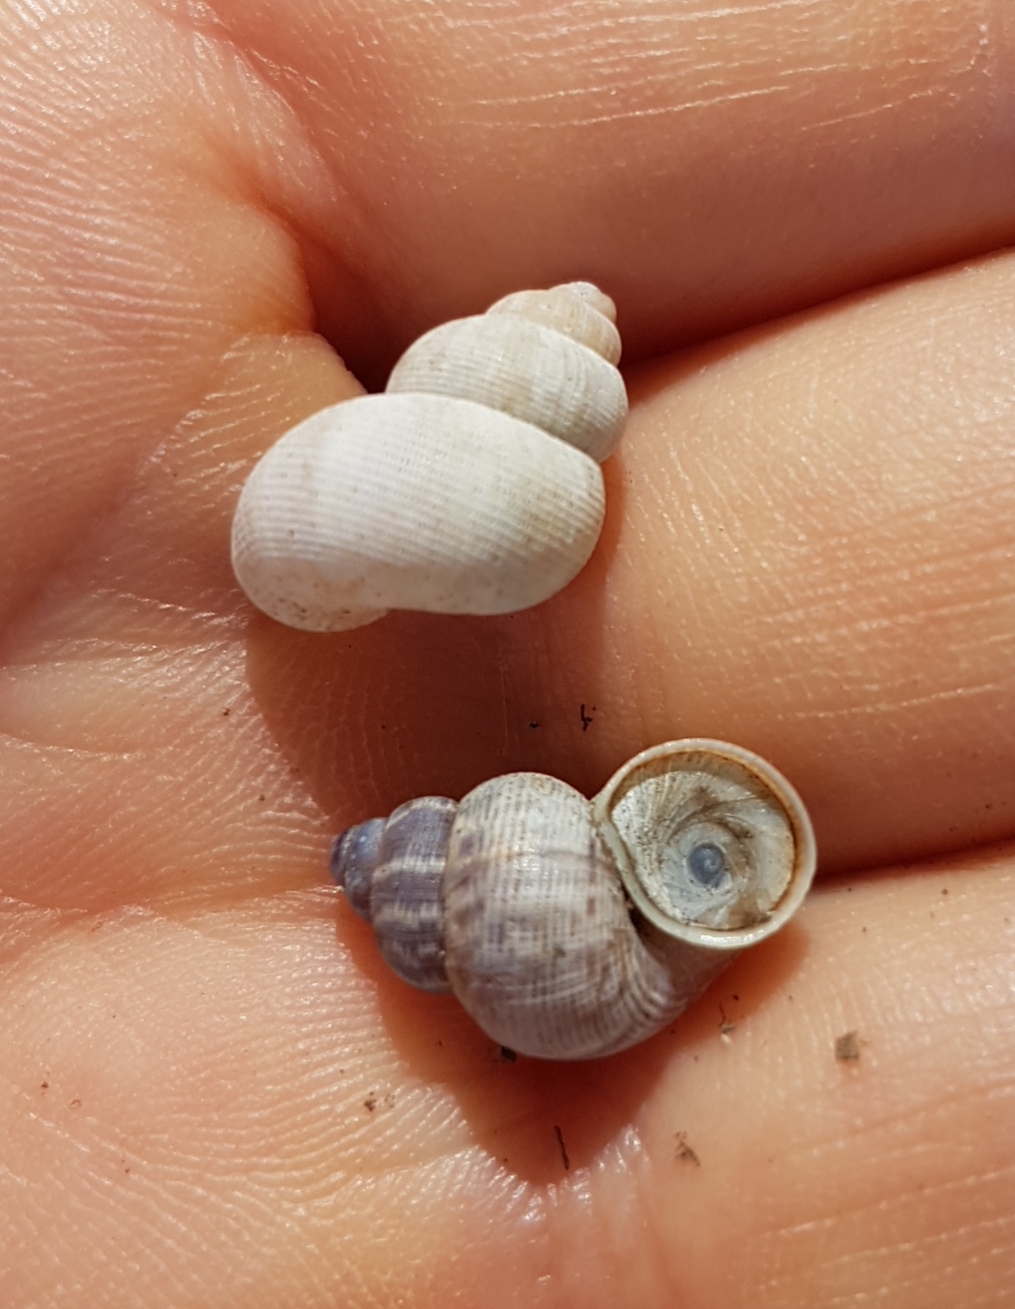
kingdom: Animalia
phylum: Mollusca
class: Gastropoda
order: Littorinimorpha
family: Pomatiidae
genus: Pomatias
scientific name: Pomatias elegans
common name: Red-mouthed snail
